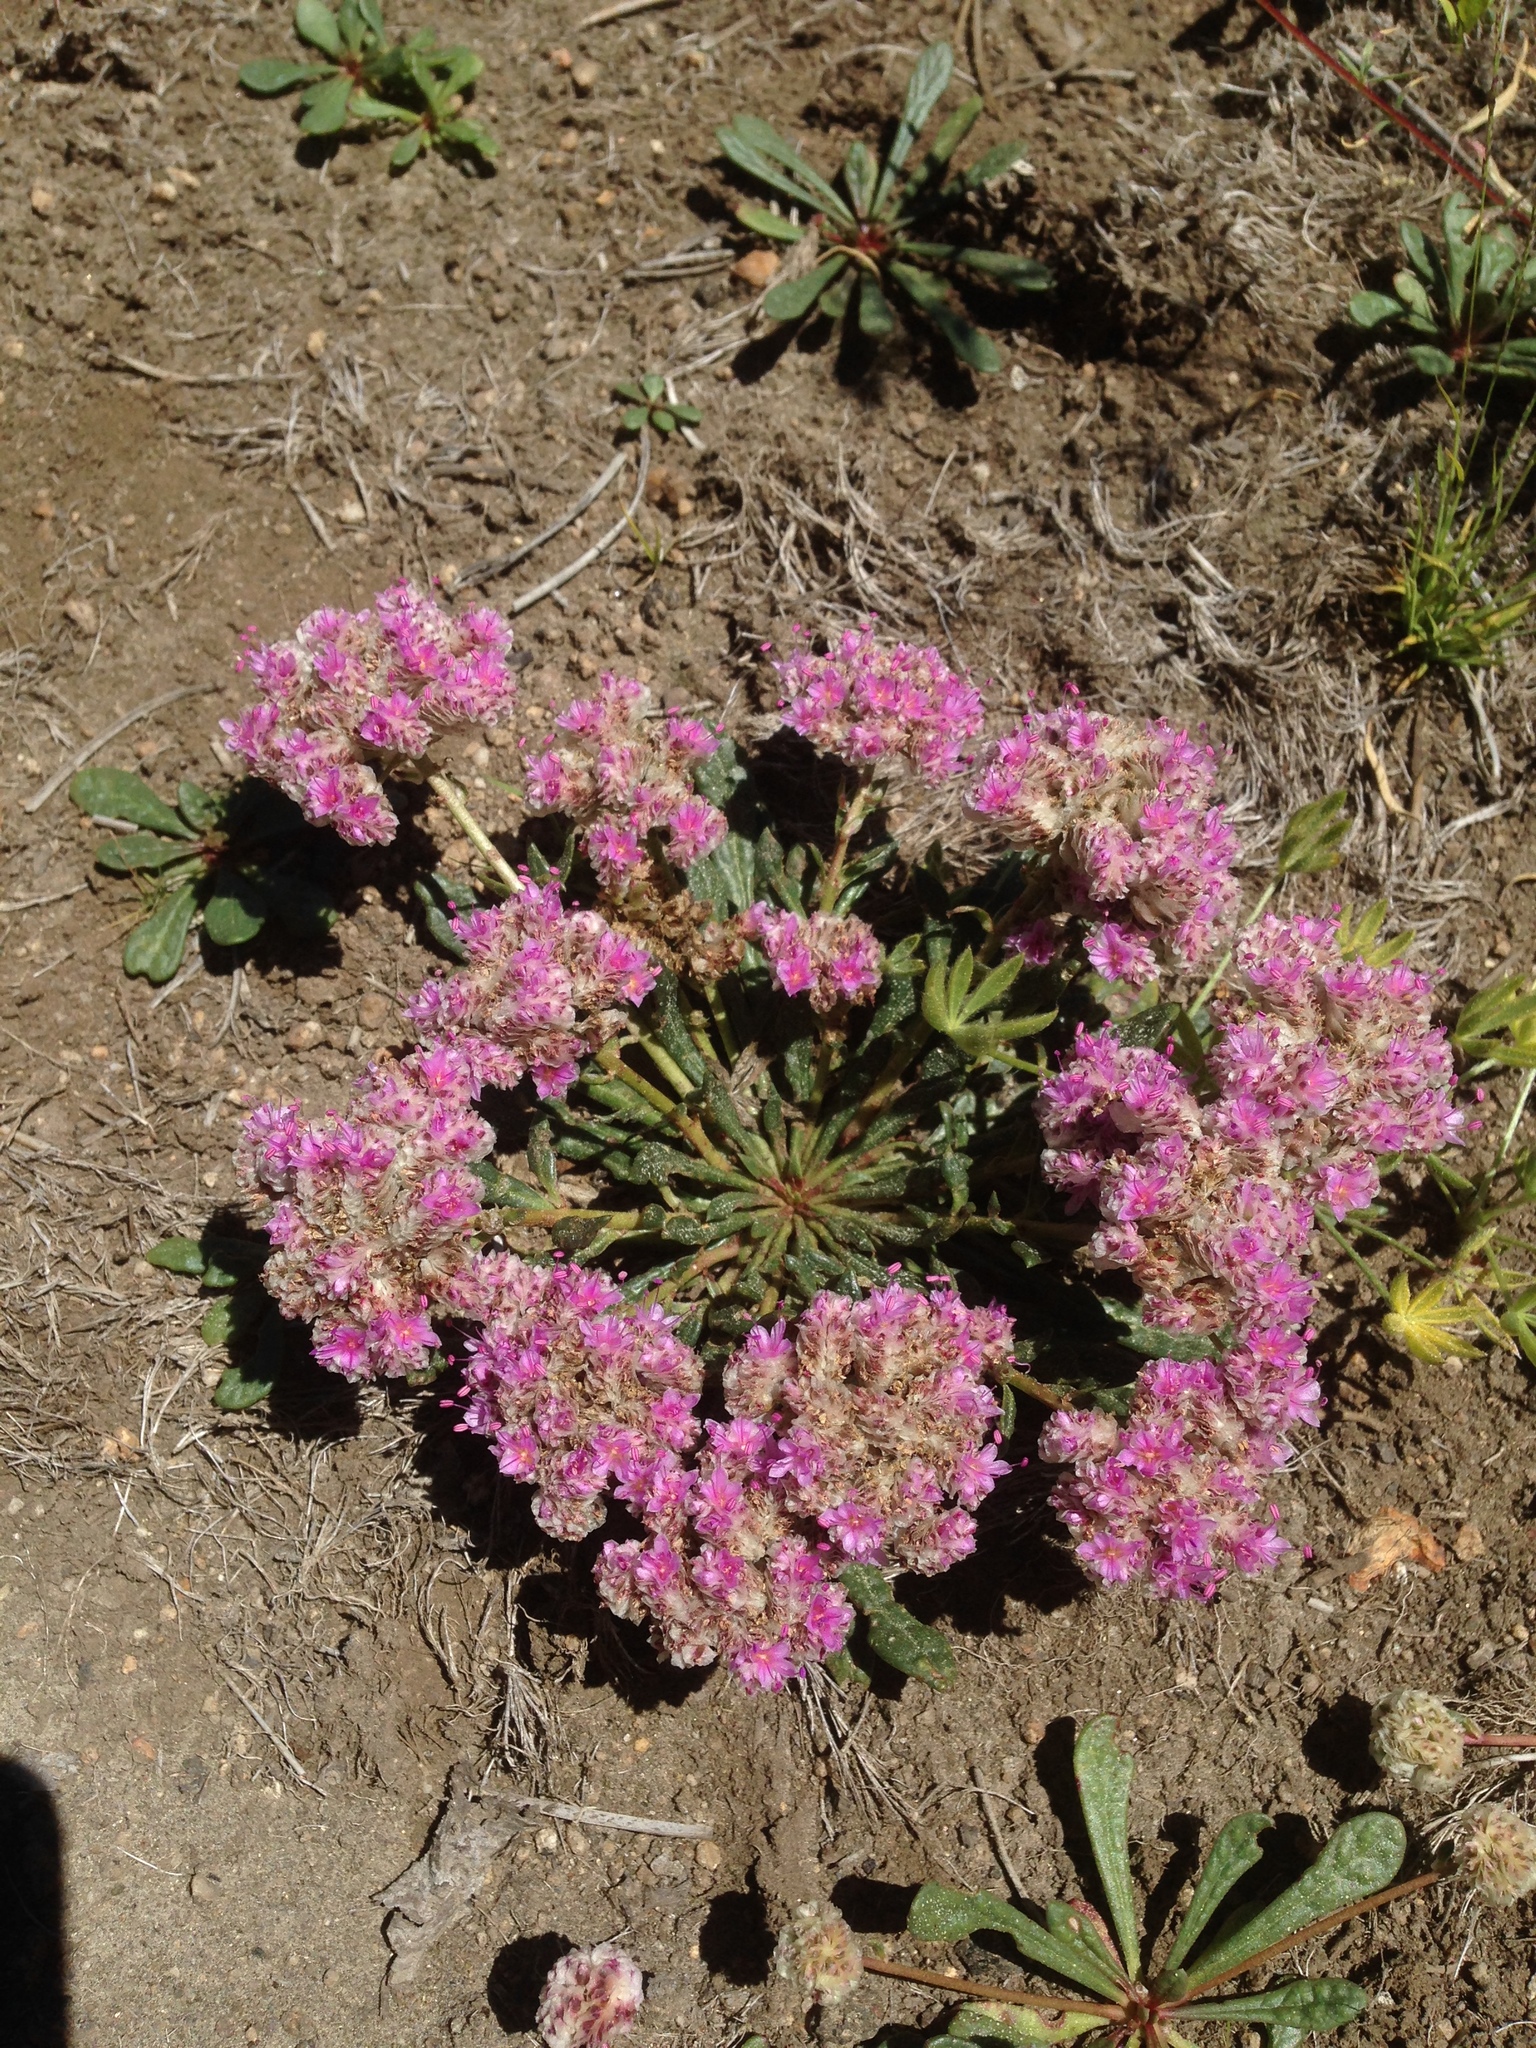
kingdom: Plantae
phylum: Tracheophyta
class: Magnoliopsida
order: Caryophyllales
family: Montiaceae
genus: Calyptridium
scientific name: Calyptridium monospermum
